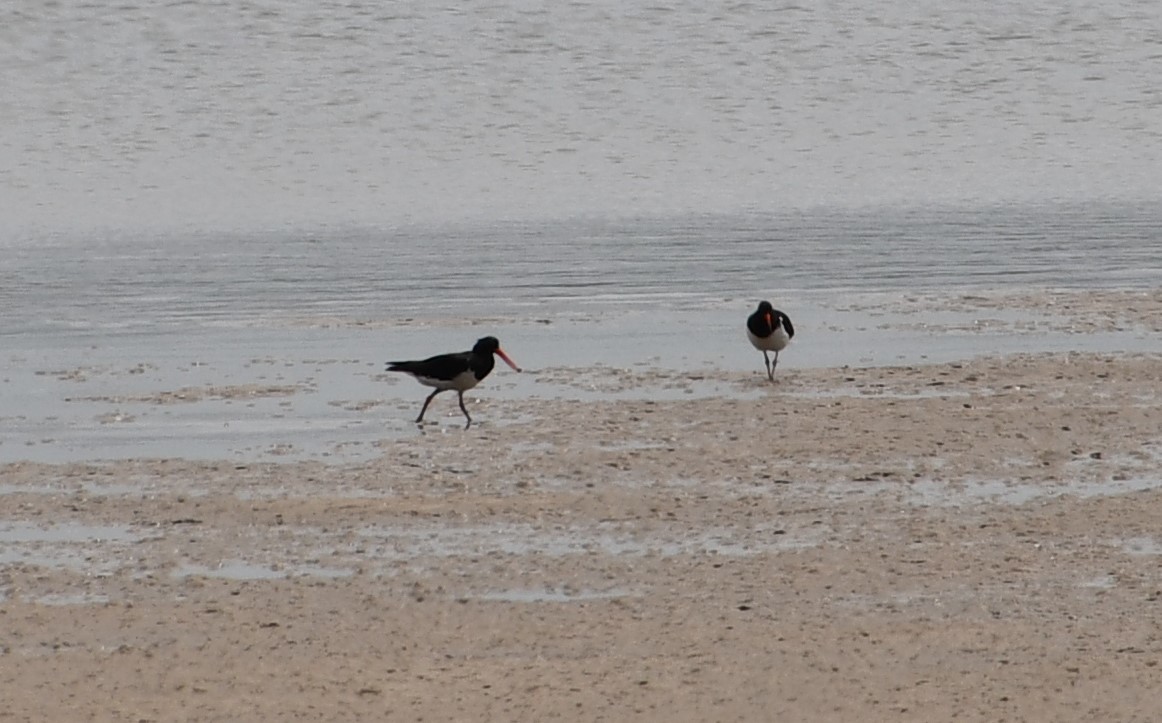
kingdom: Animalia
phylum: Chordata
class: Aves
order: Charadriiformes
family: Haematopodidae
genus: Haematopus
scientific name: Haematopus longirostris
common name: Pied oystercatcher
